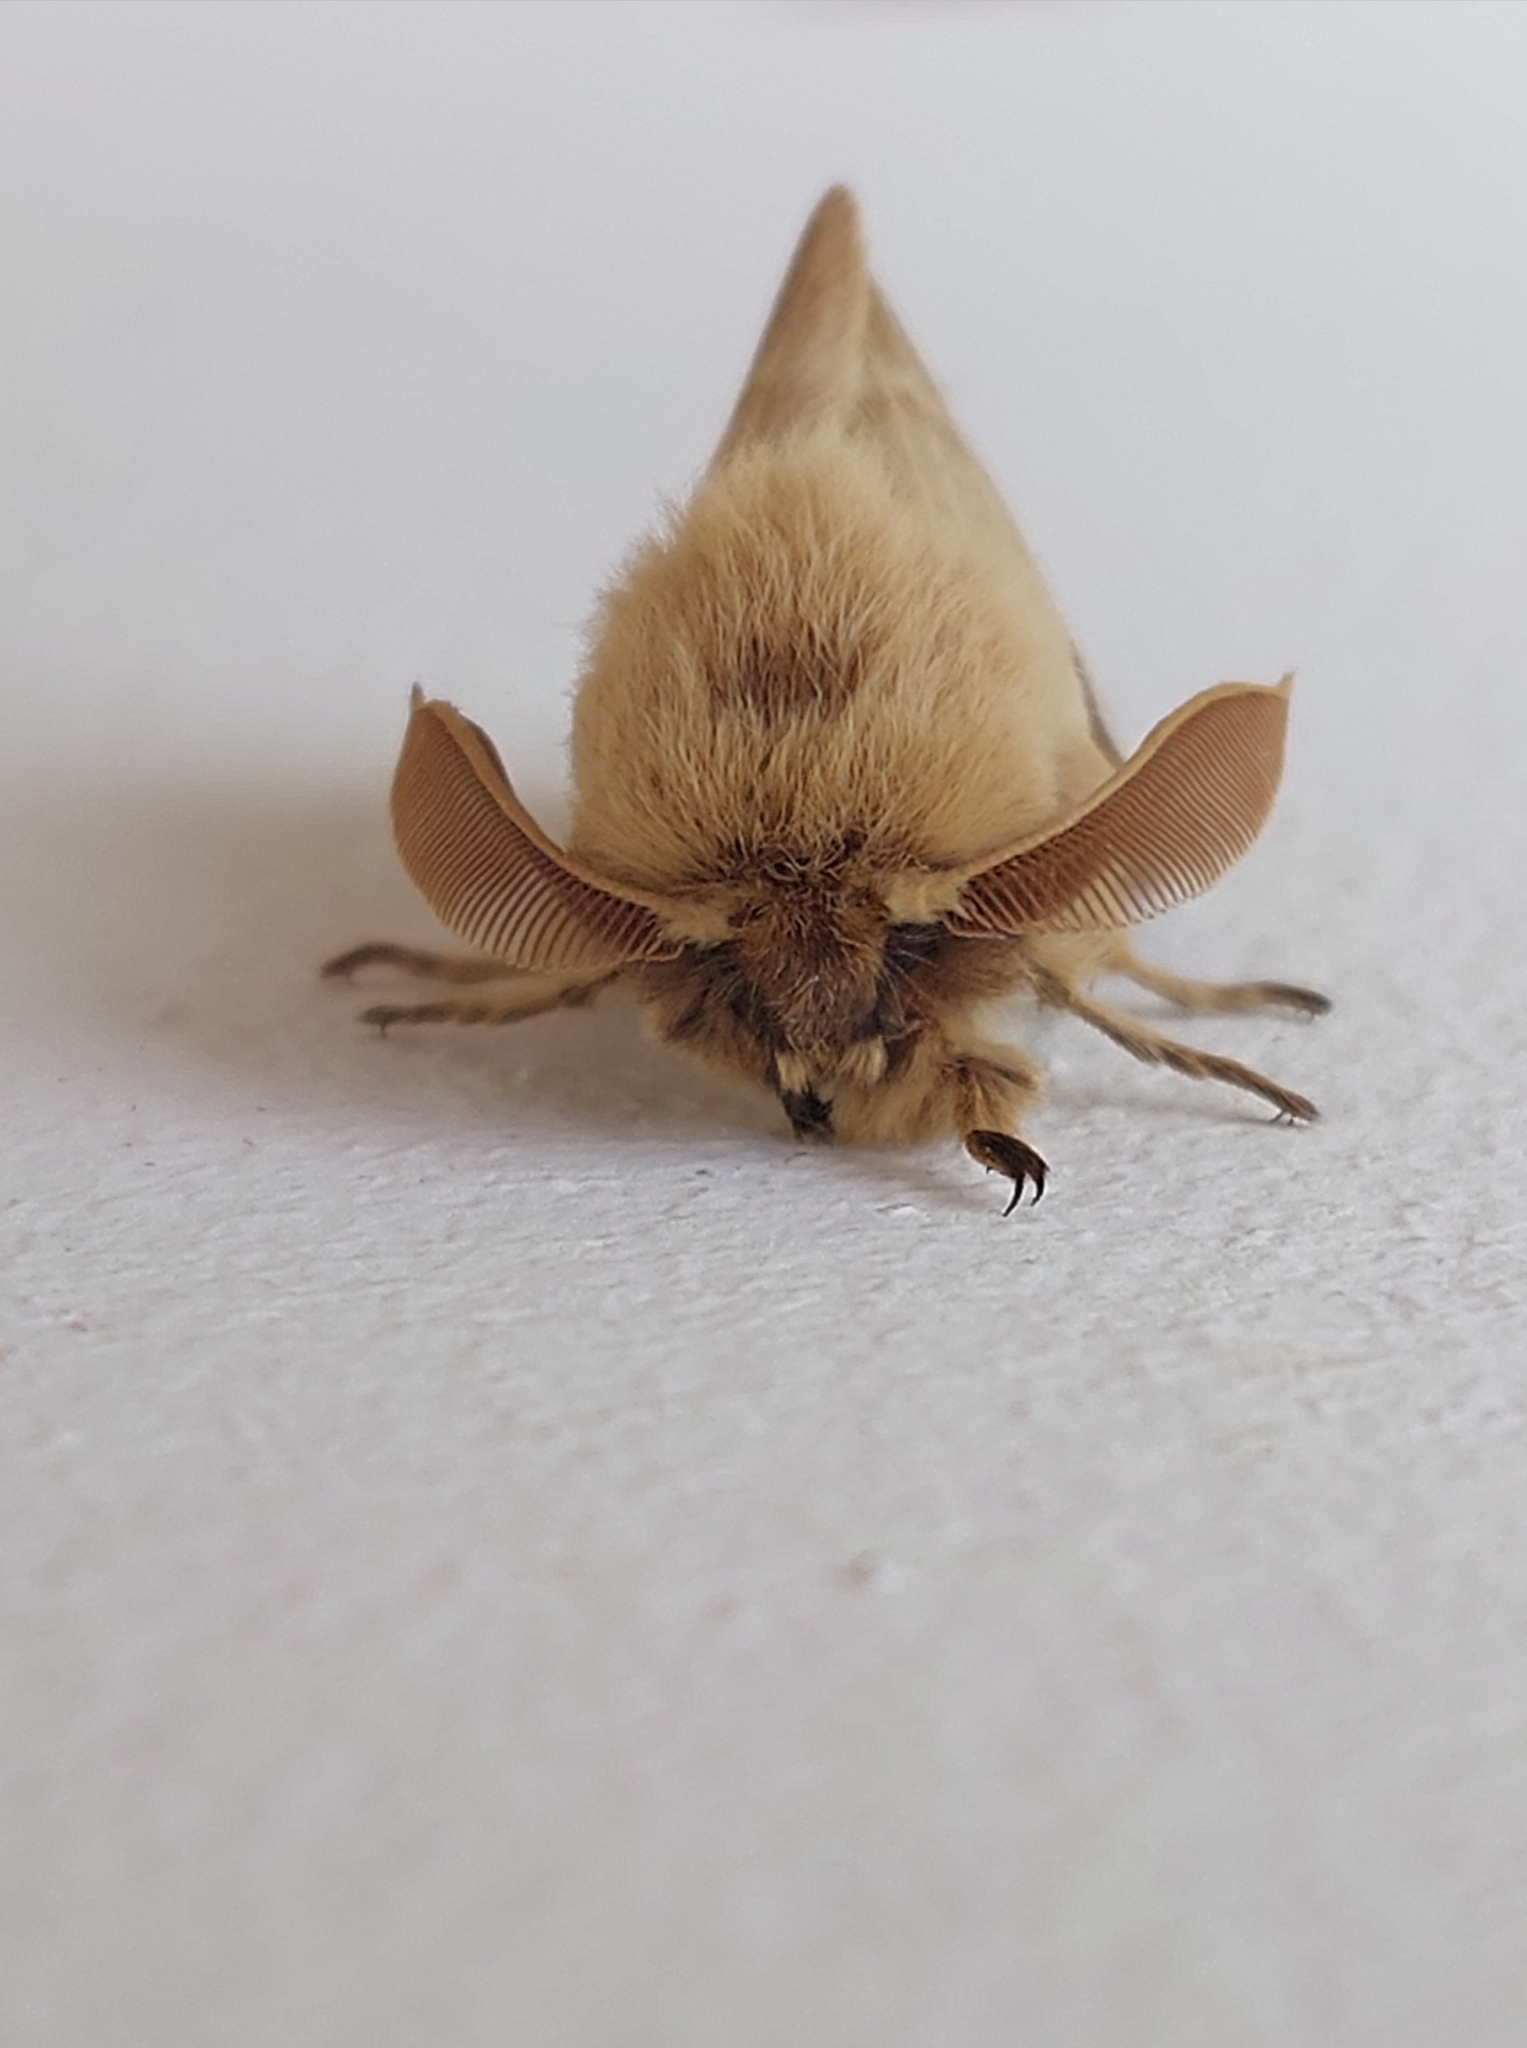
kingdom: Animalia
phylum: Arthropoda
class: Insecta
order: Lepidoptera
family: Brahmaeidae
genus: Lemonia
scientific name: Lemonia balcanica
